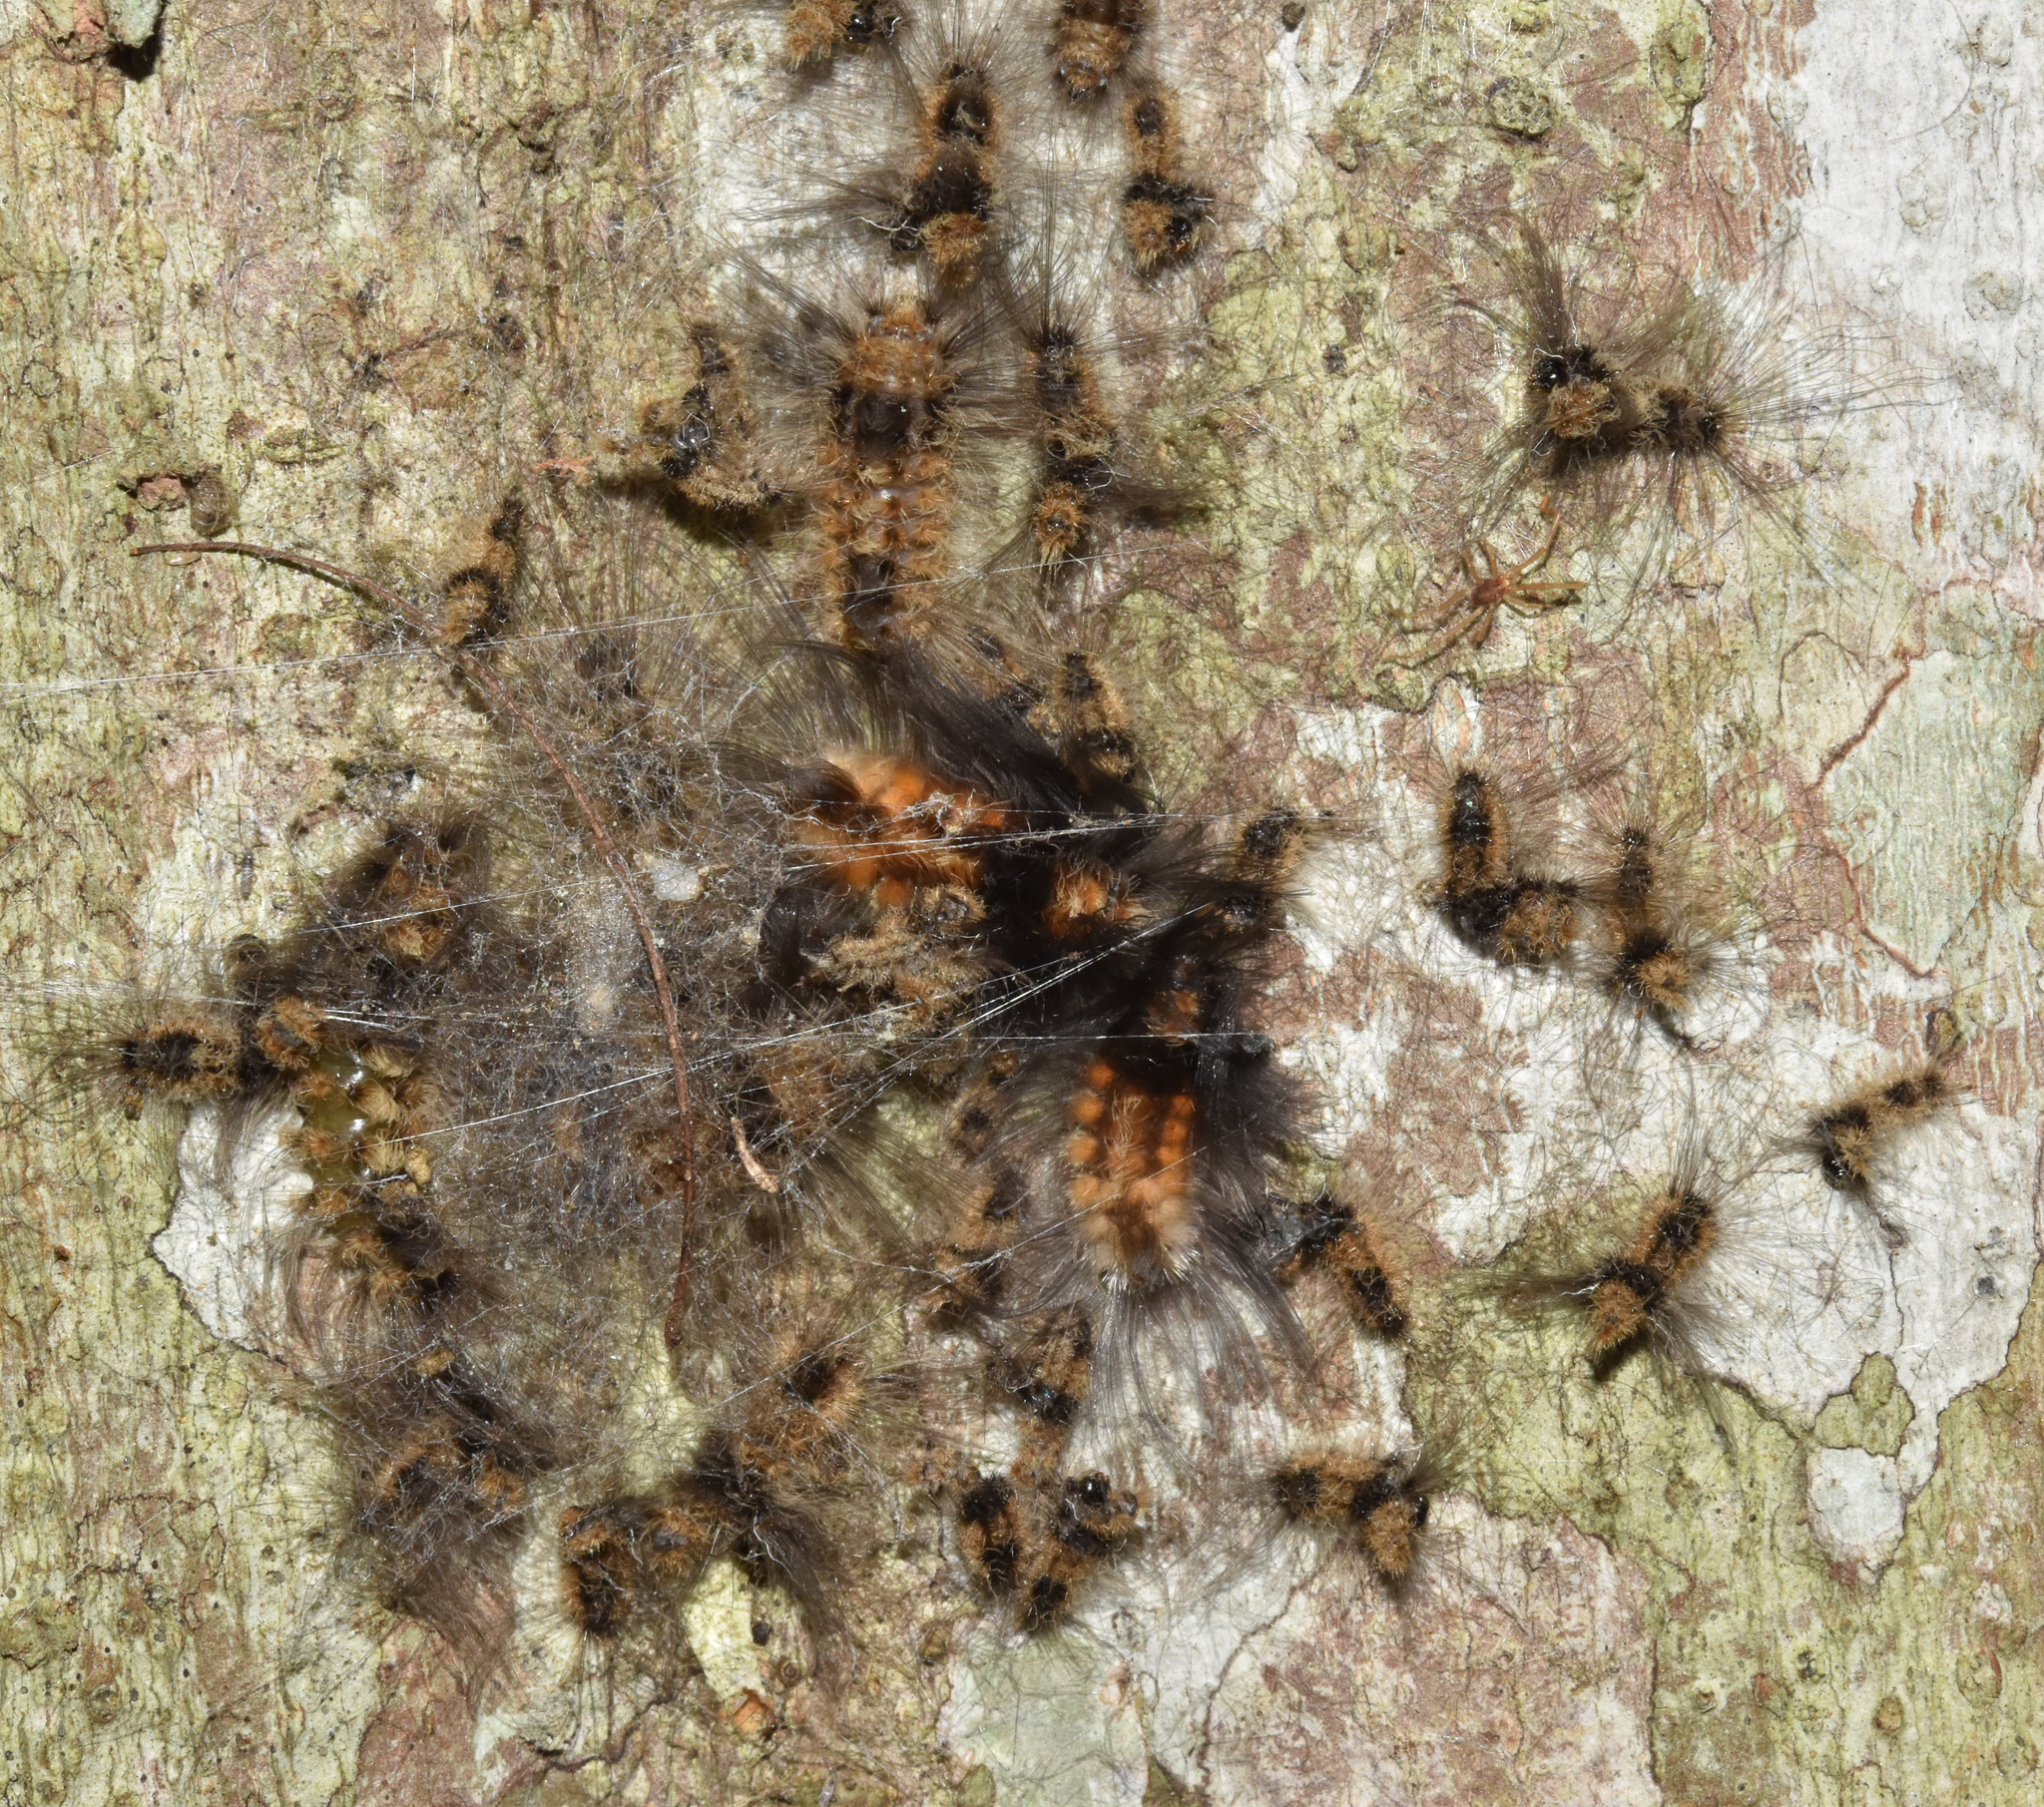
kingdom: Animalia
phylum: Arthropoda
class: Insecta
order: Lepidoptera
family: Erebidae
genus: Tumicla
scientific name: Tumicla sagenaria
